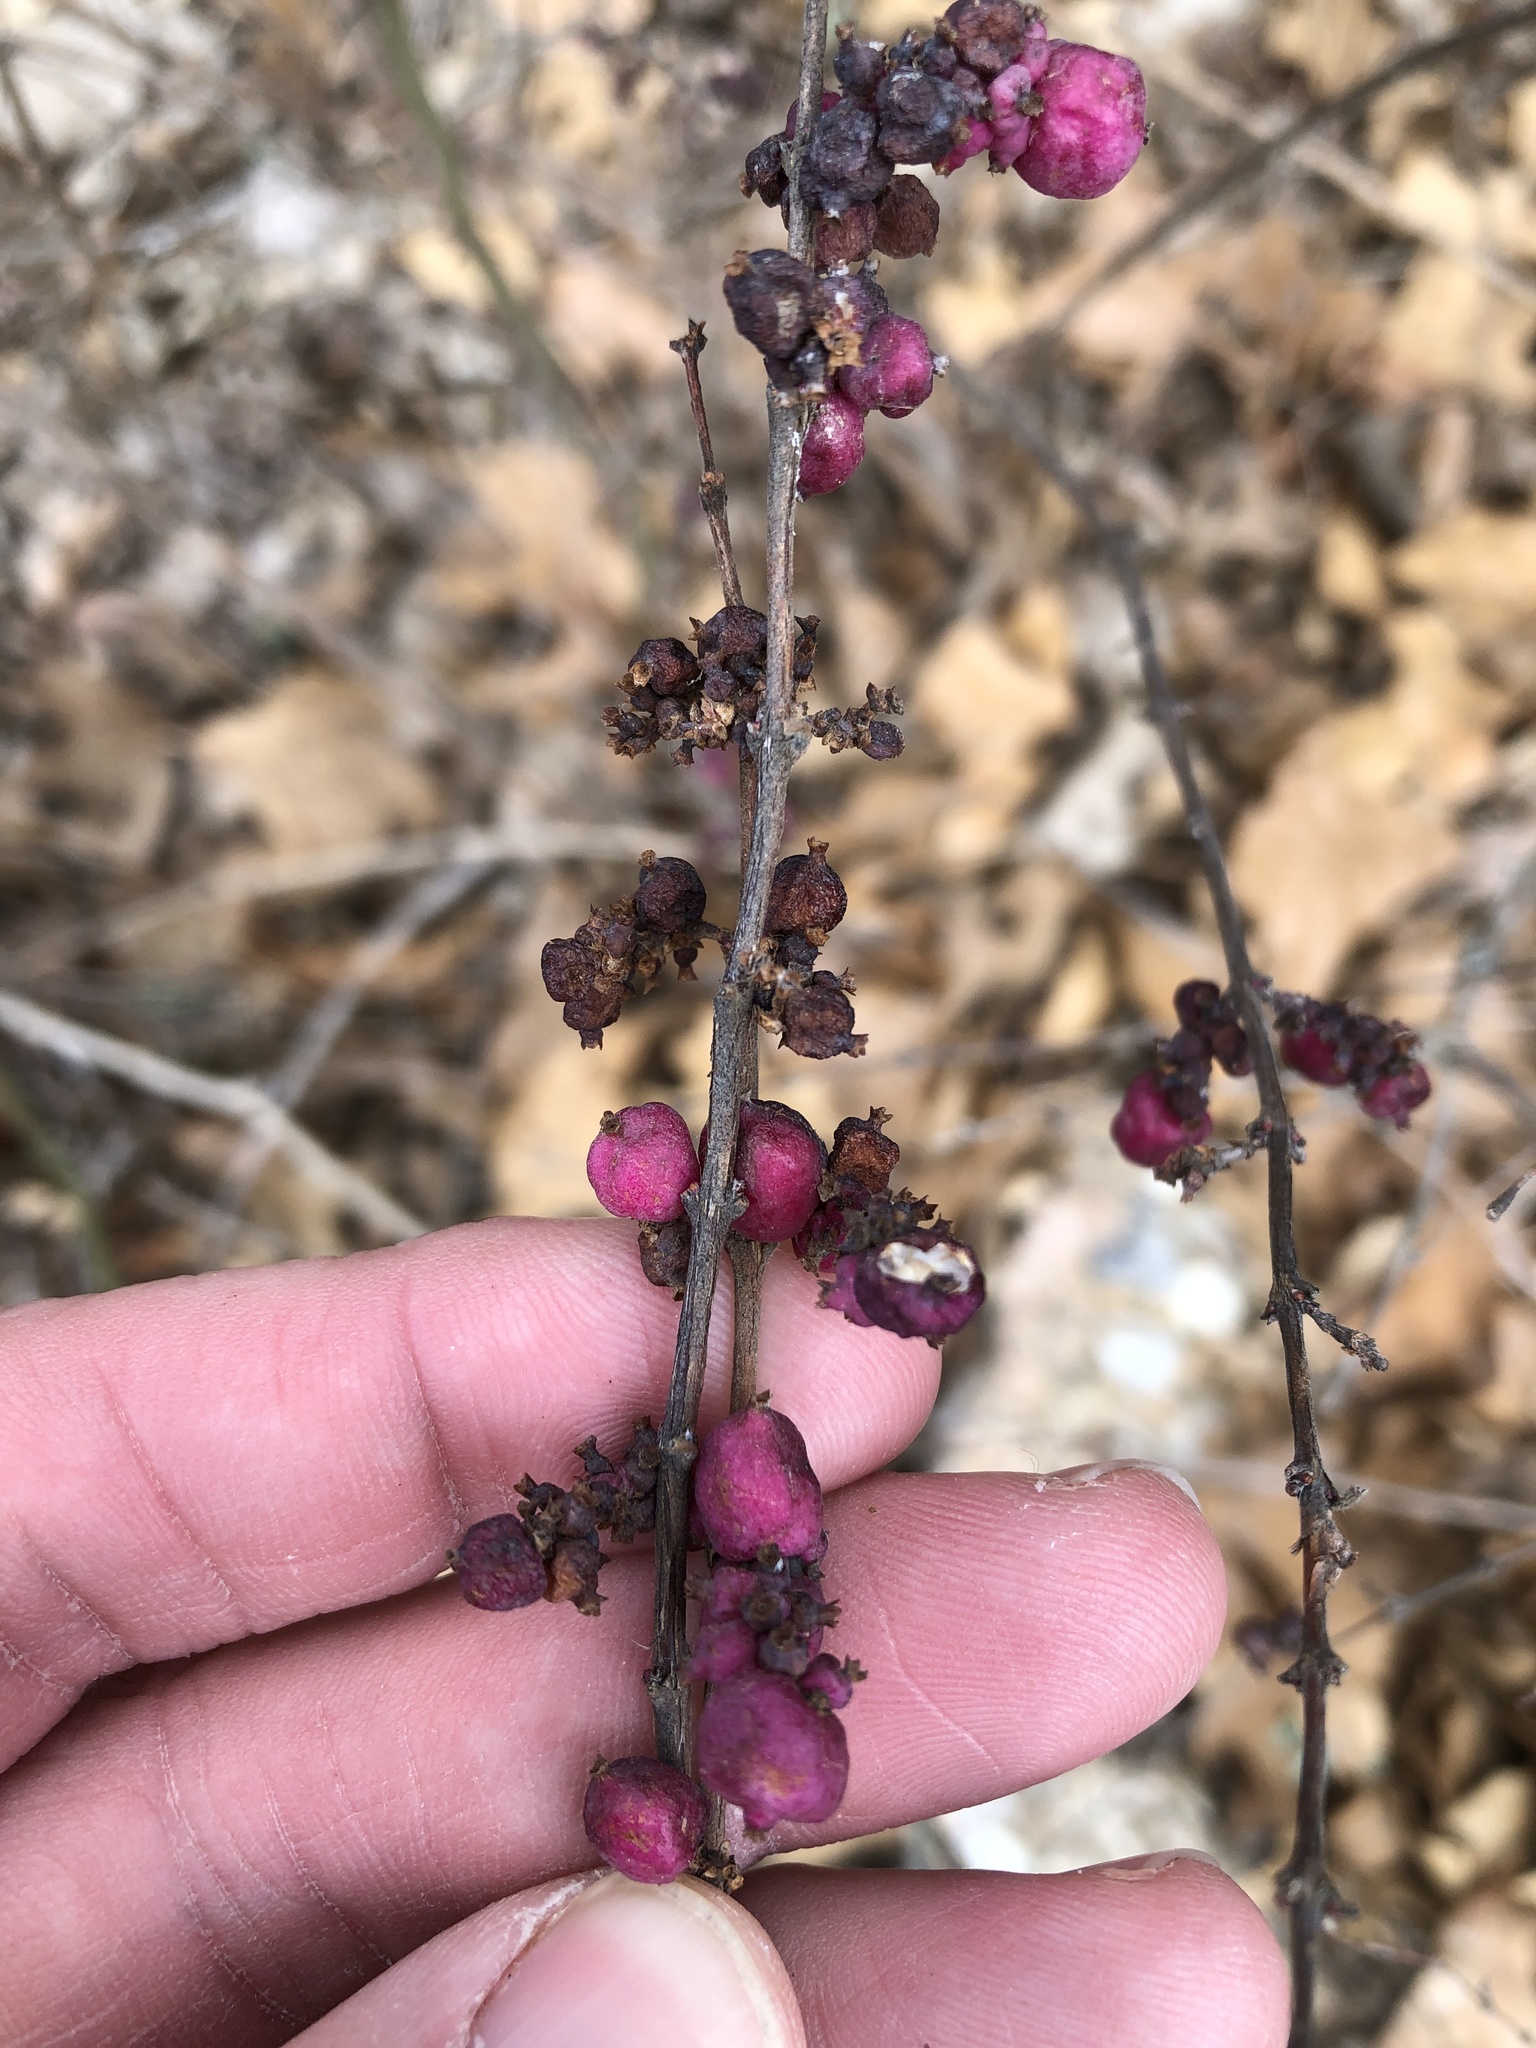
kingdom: Plantae
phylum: Tracheophyta
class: Magnoliopsida
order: Dipsacales
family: Caprifoliaceae
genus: Symphoricarpos
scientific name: Symphoricarpos orbiculatus
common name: Coralberry
